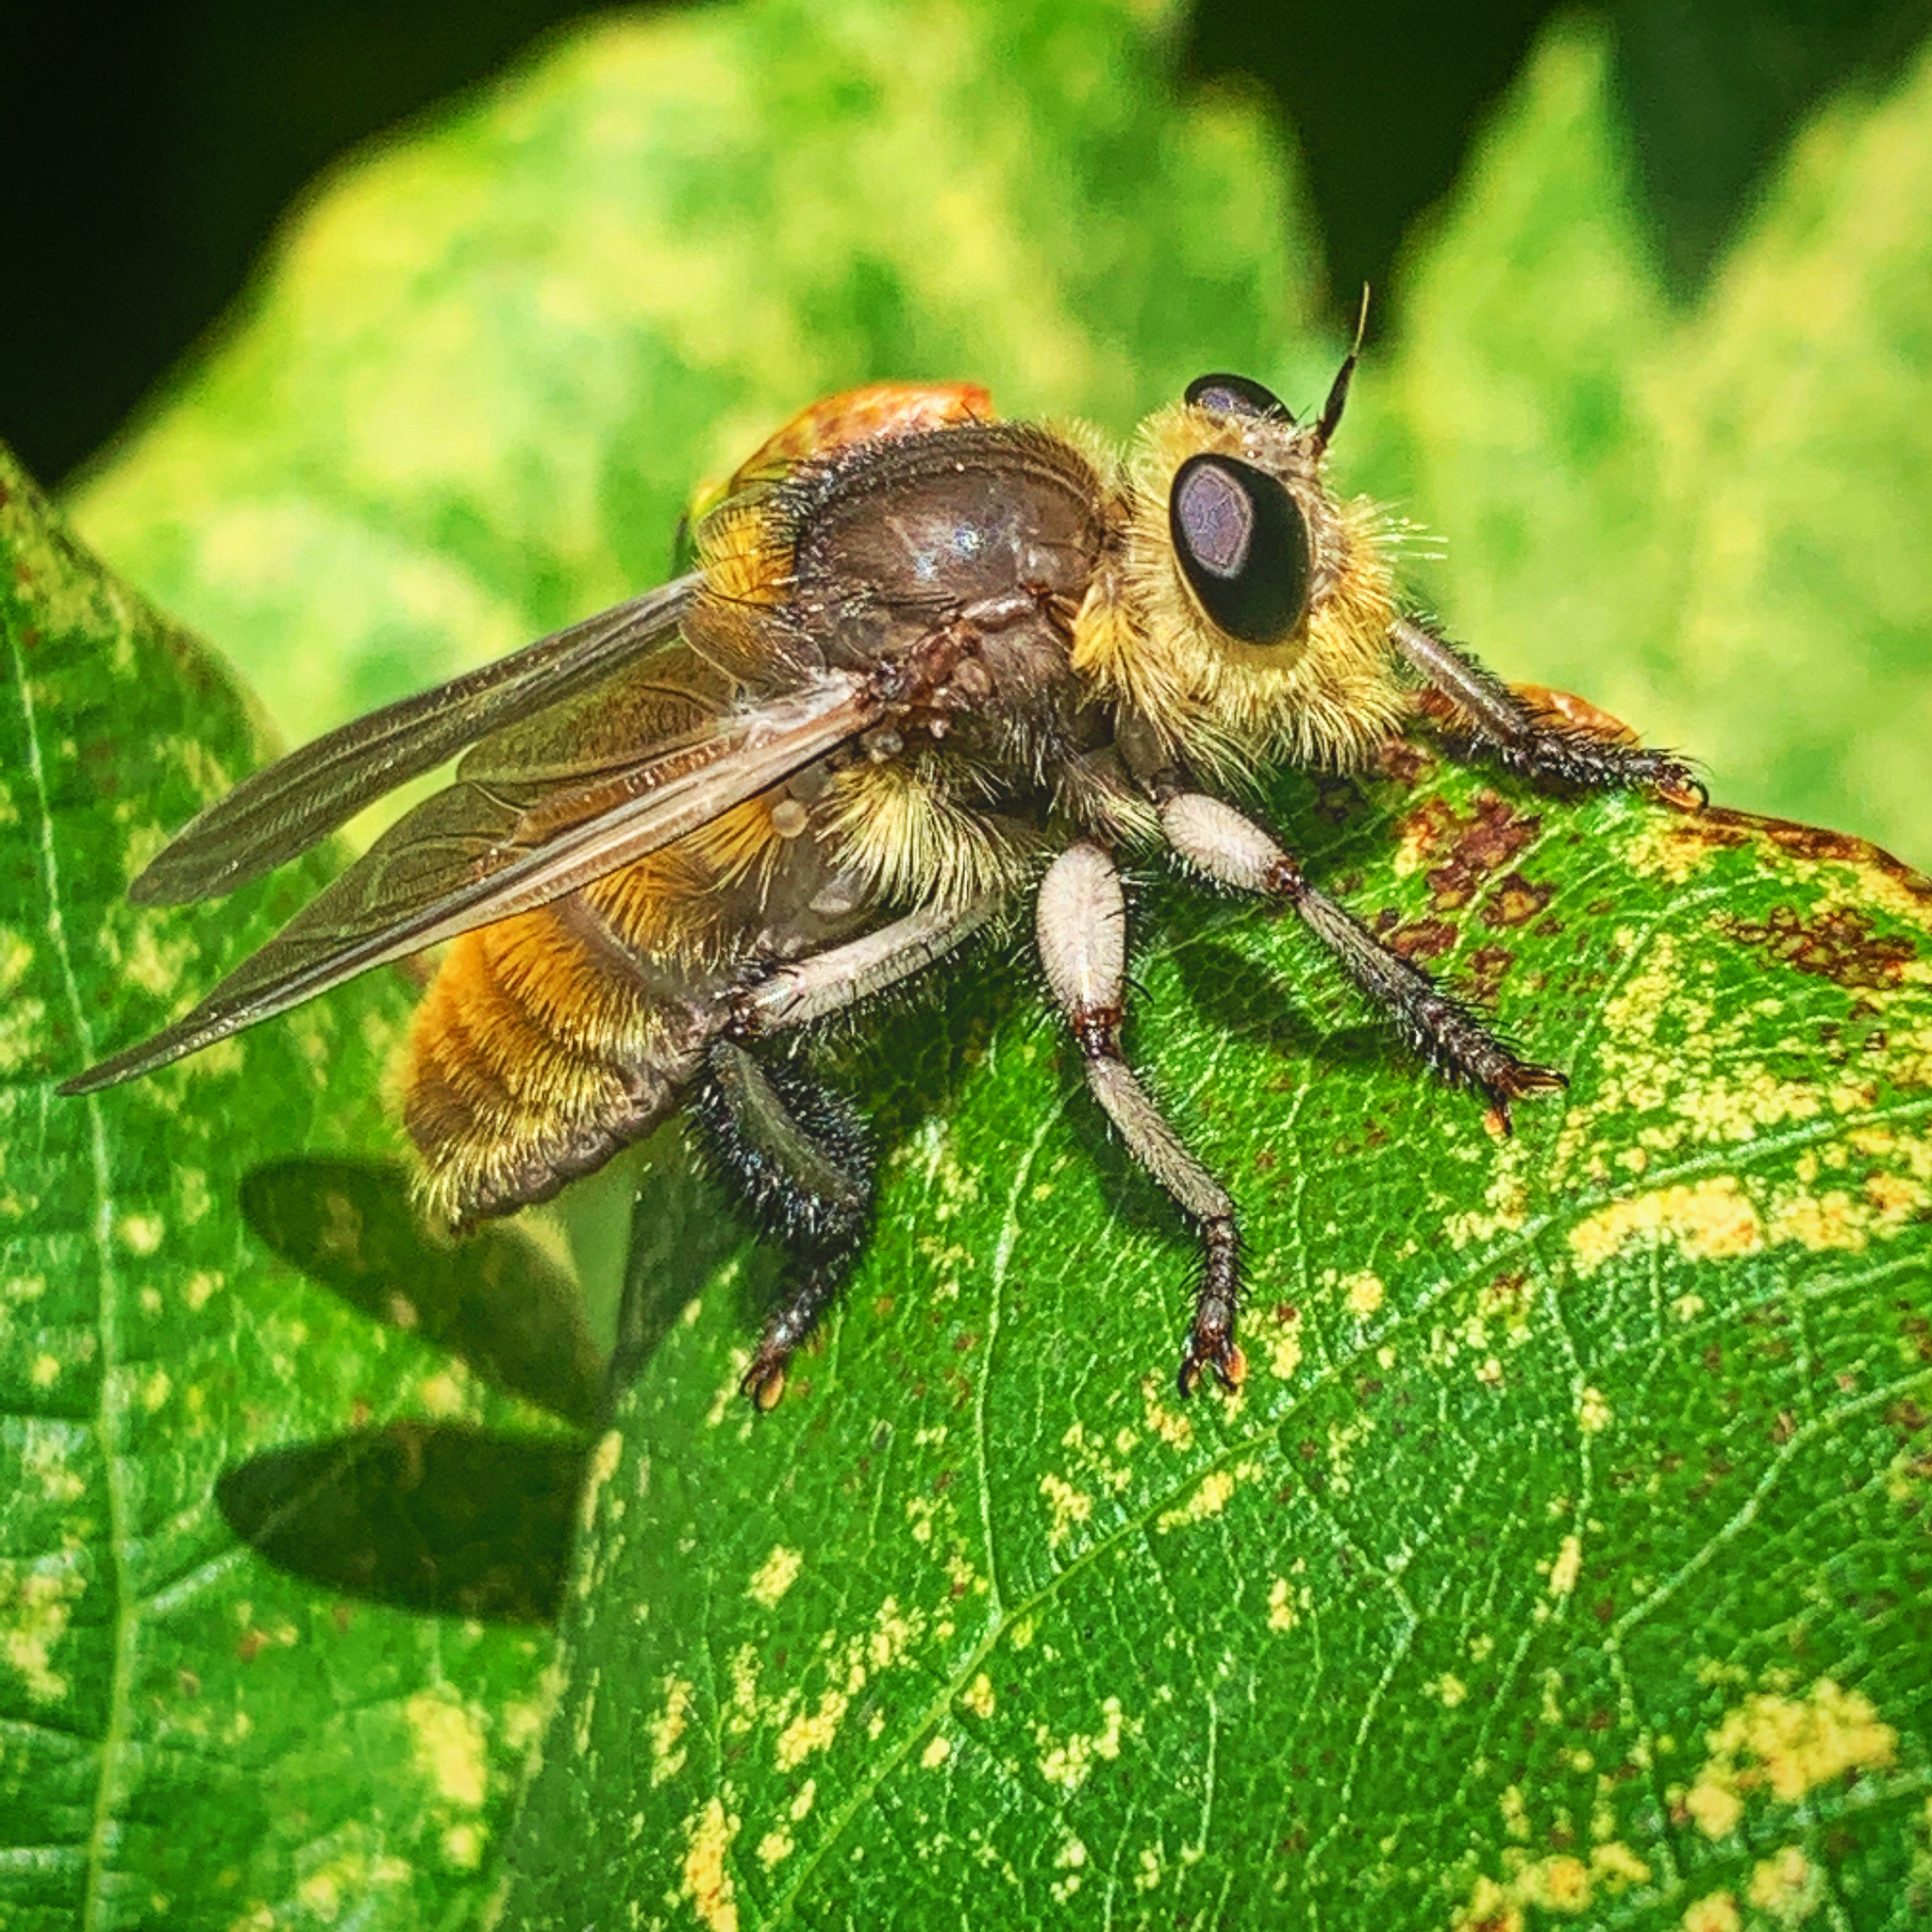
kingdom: Animalia
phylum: Arthropoda
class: Insecta
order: Diptera
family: Asilidae
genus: Mallophora
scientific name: Mallophora fautrix
